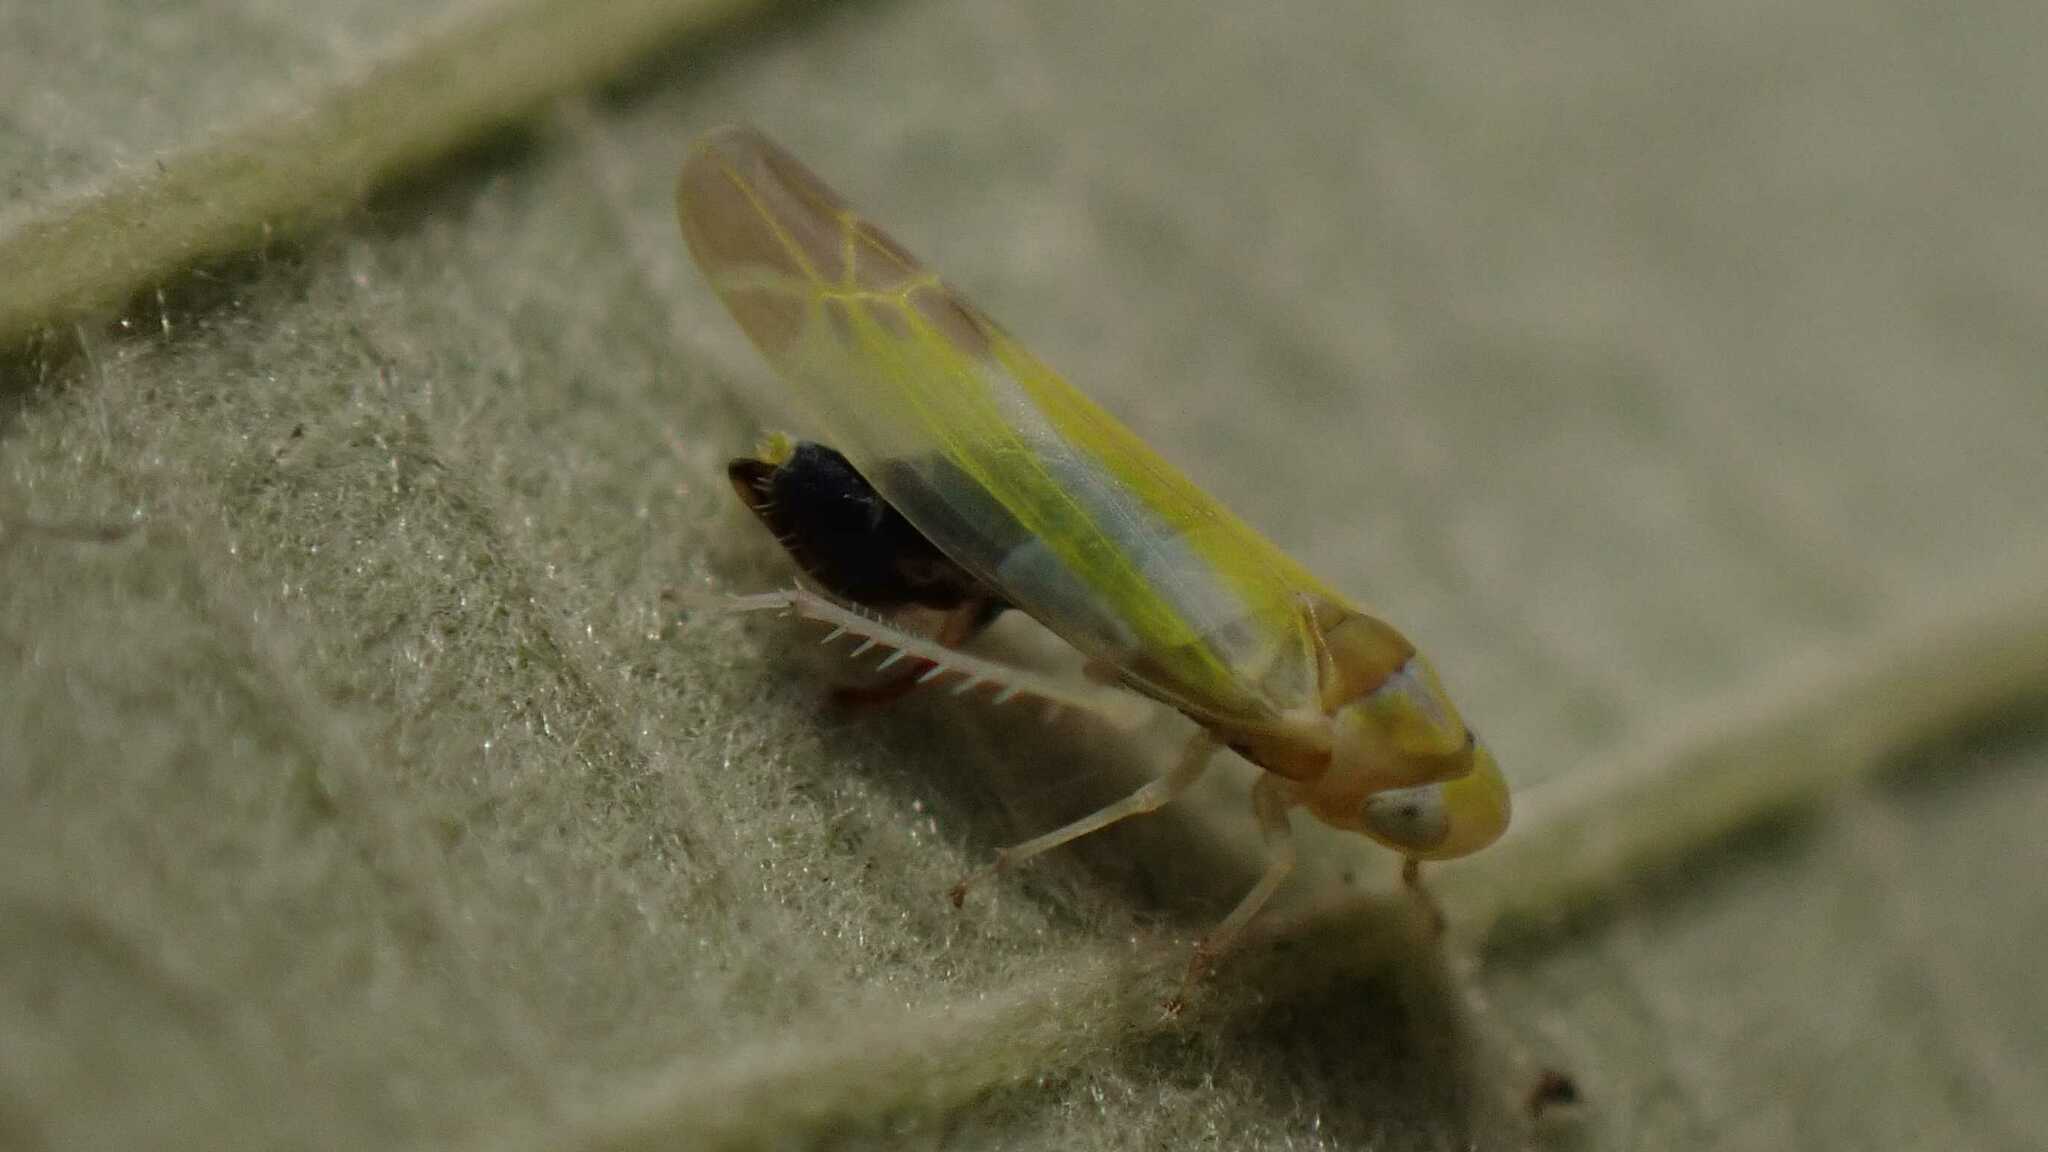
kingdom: Animalia
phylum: Arthropoda
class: Insecta
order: Hemiptera
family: Cicadellidae
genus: Lindbergina
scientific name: Lindbergina aurovittata
